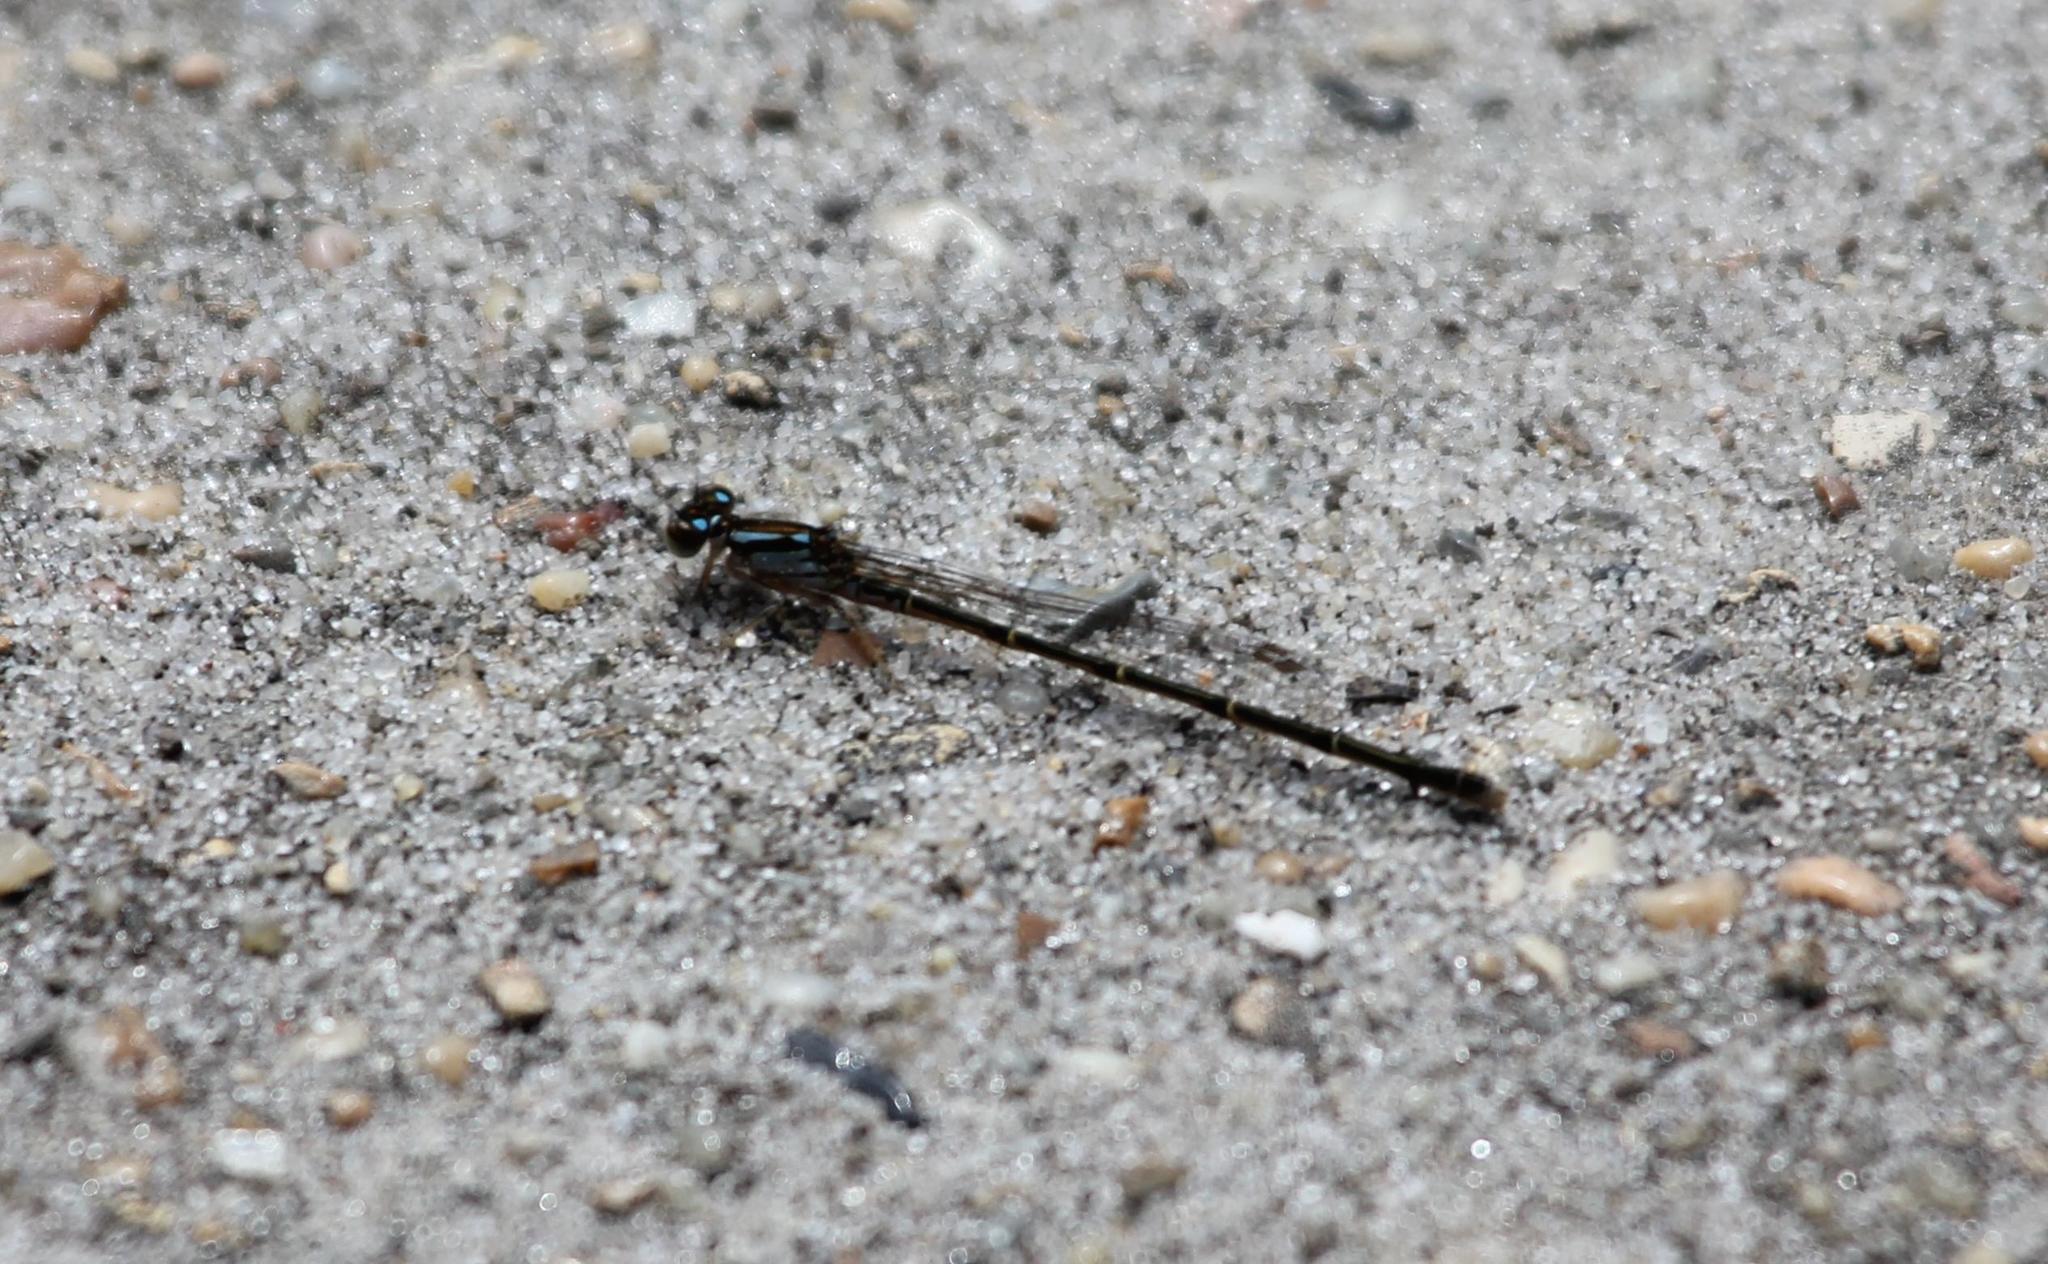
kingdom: Animalia
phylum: Arthropoda
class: Insecta
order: Odonata
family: Coenagrionidae
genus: Ischnura
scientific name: Ischnura posita
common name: Fragile forktail
